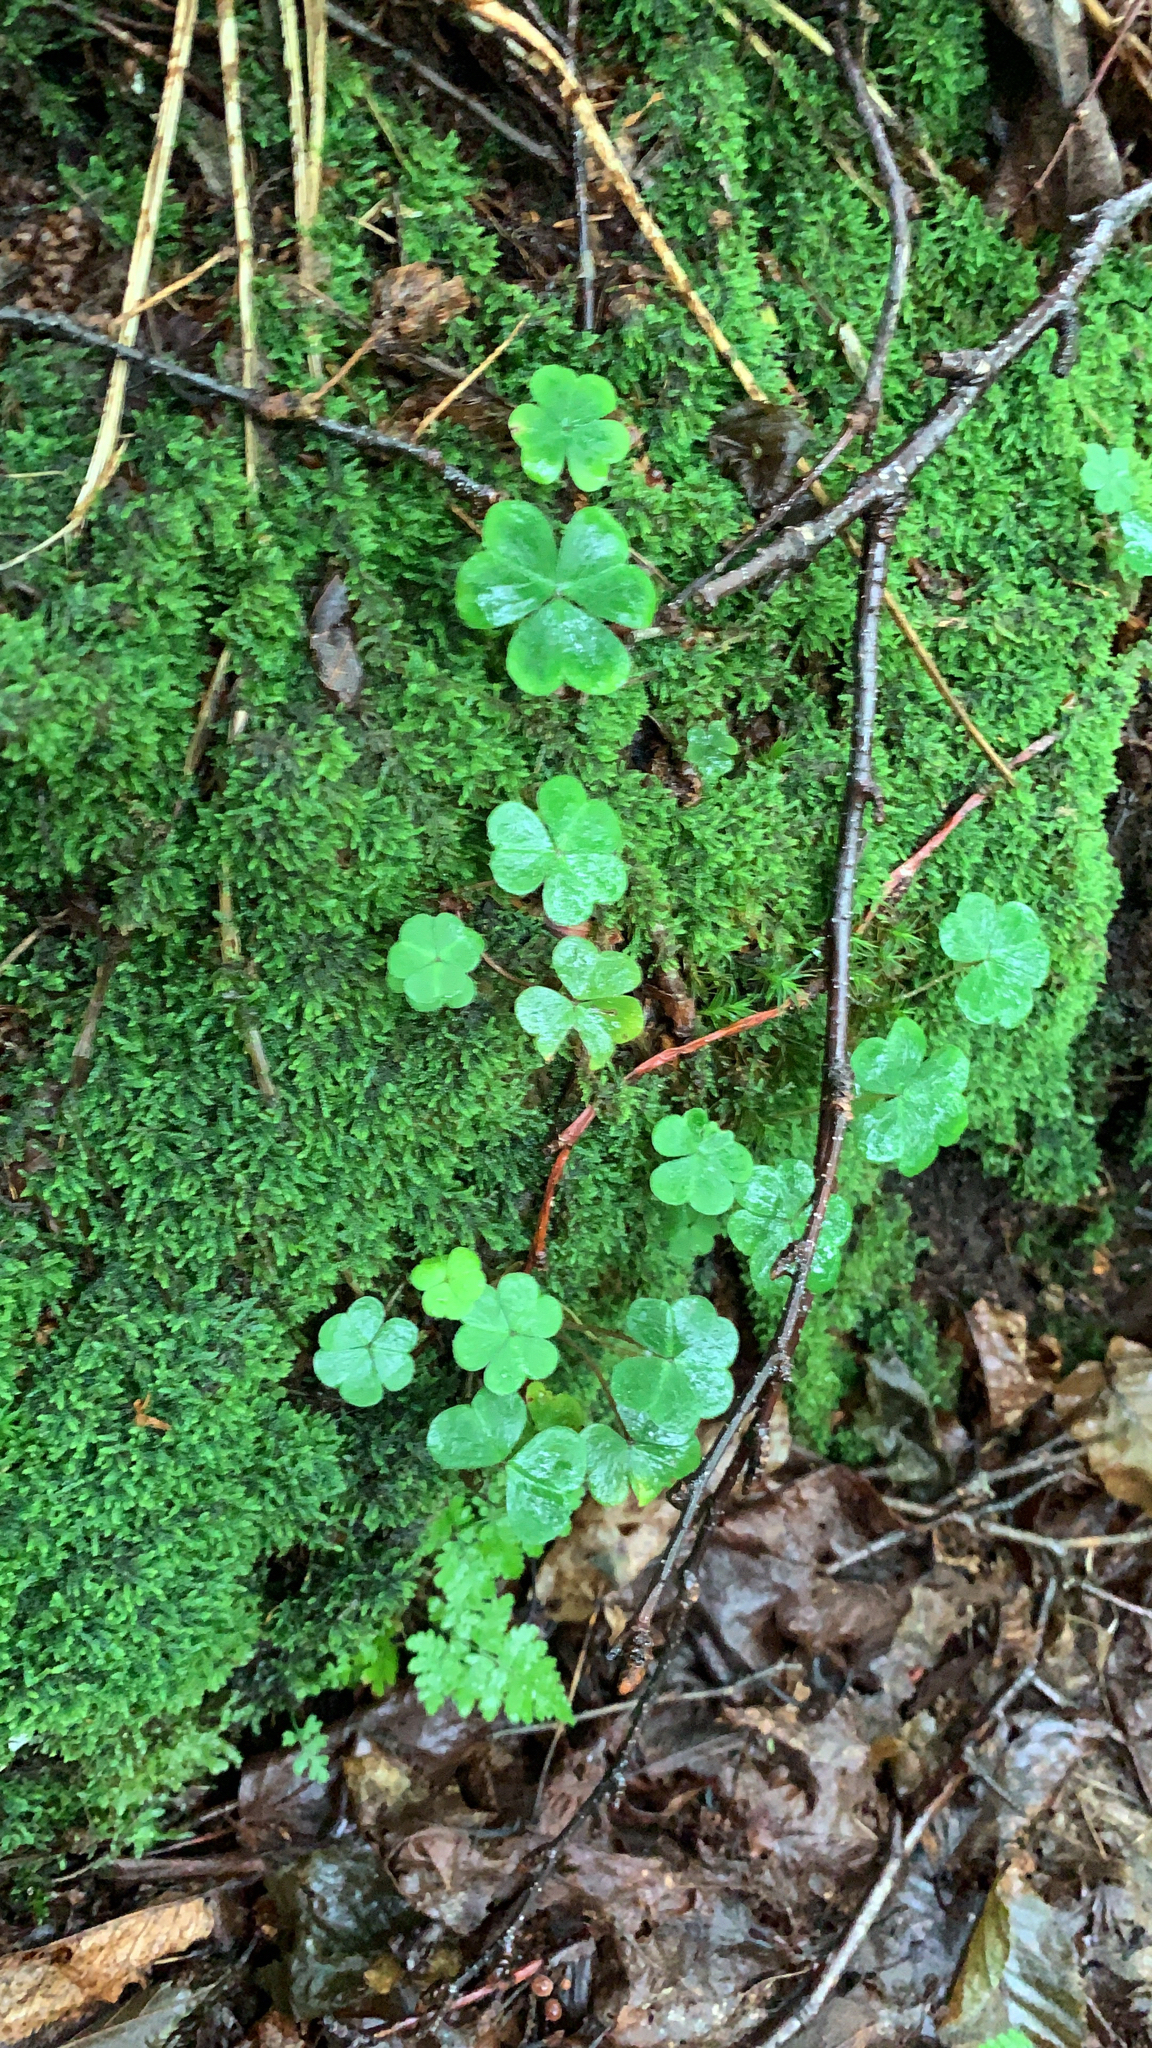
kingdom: Plantae
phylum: Tracheophyta
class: Magnoliopsida
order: Oxalidales
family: Oxalidaceae
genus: Oxalis
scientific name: Oxalis montana
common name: American wood-sorrel
